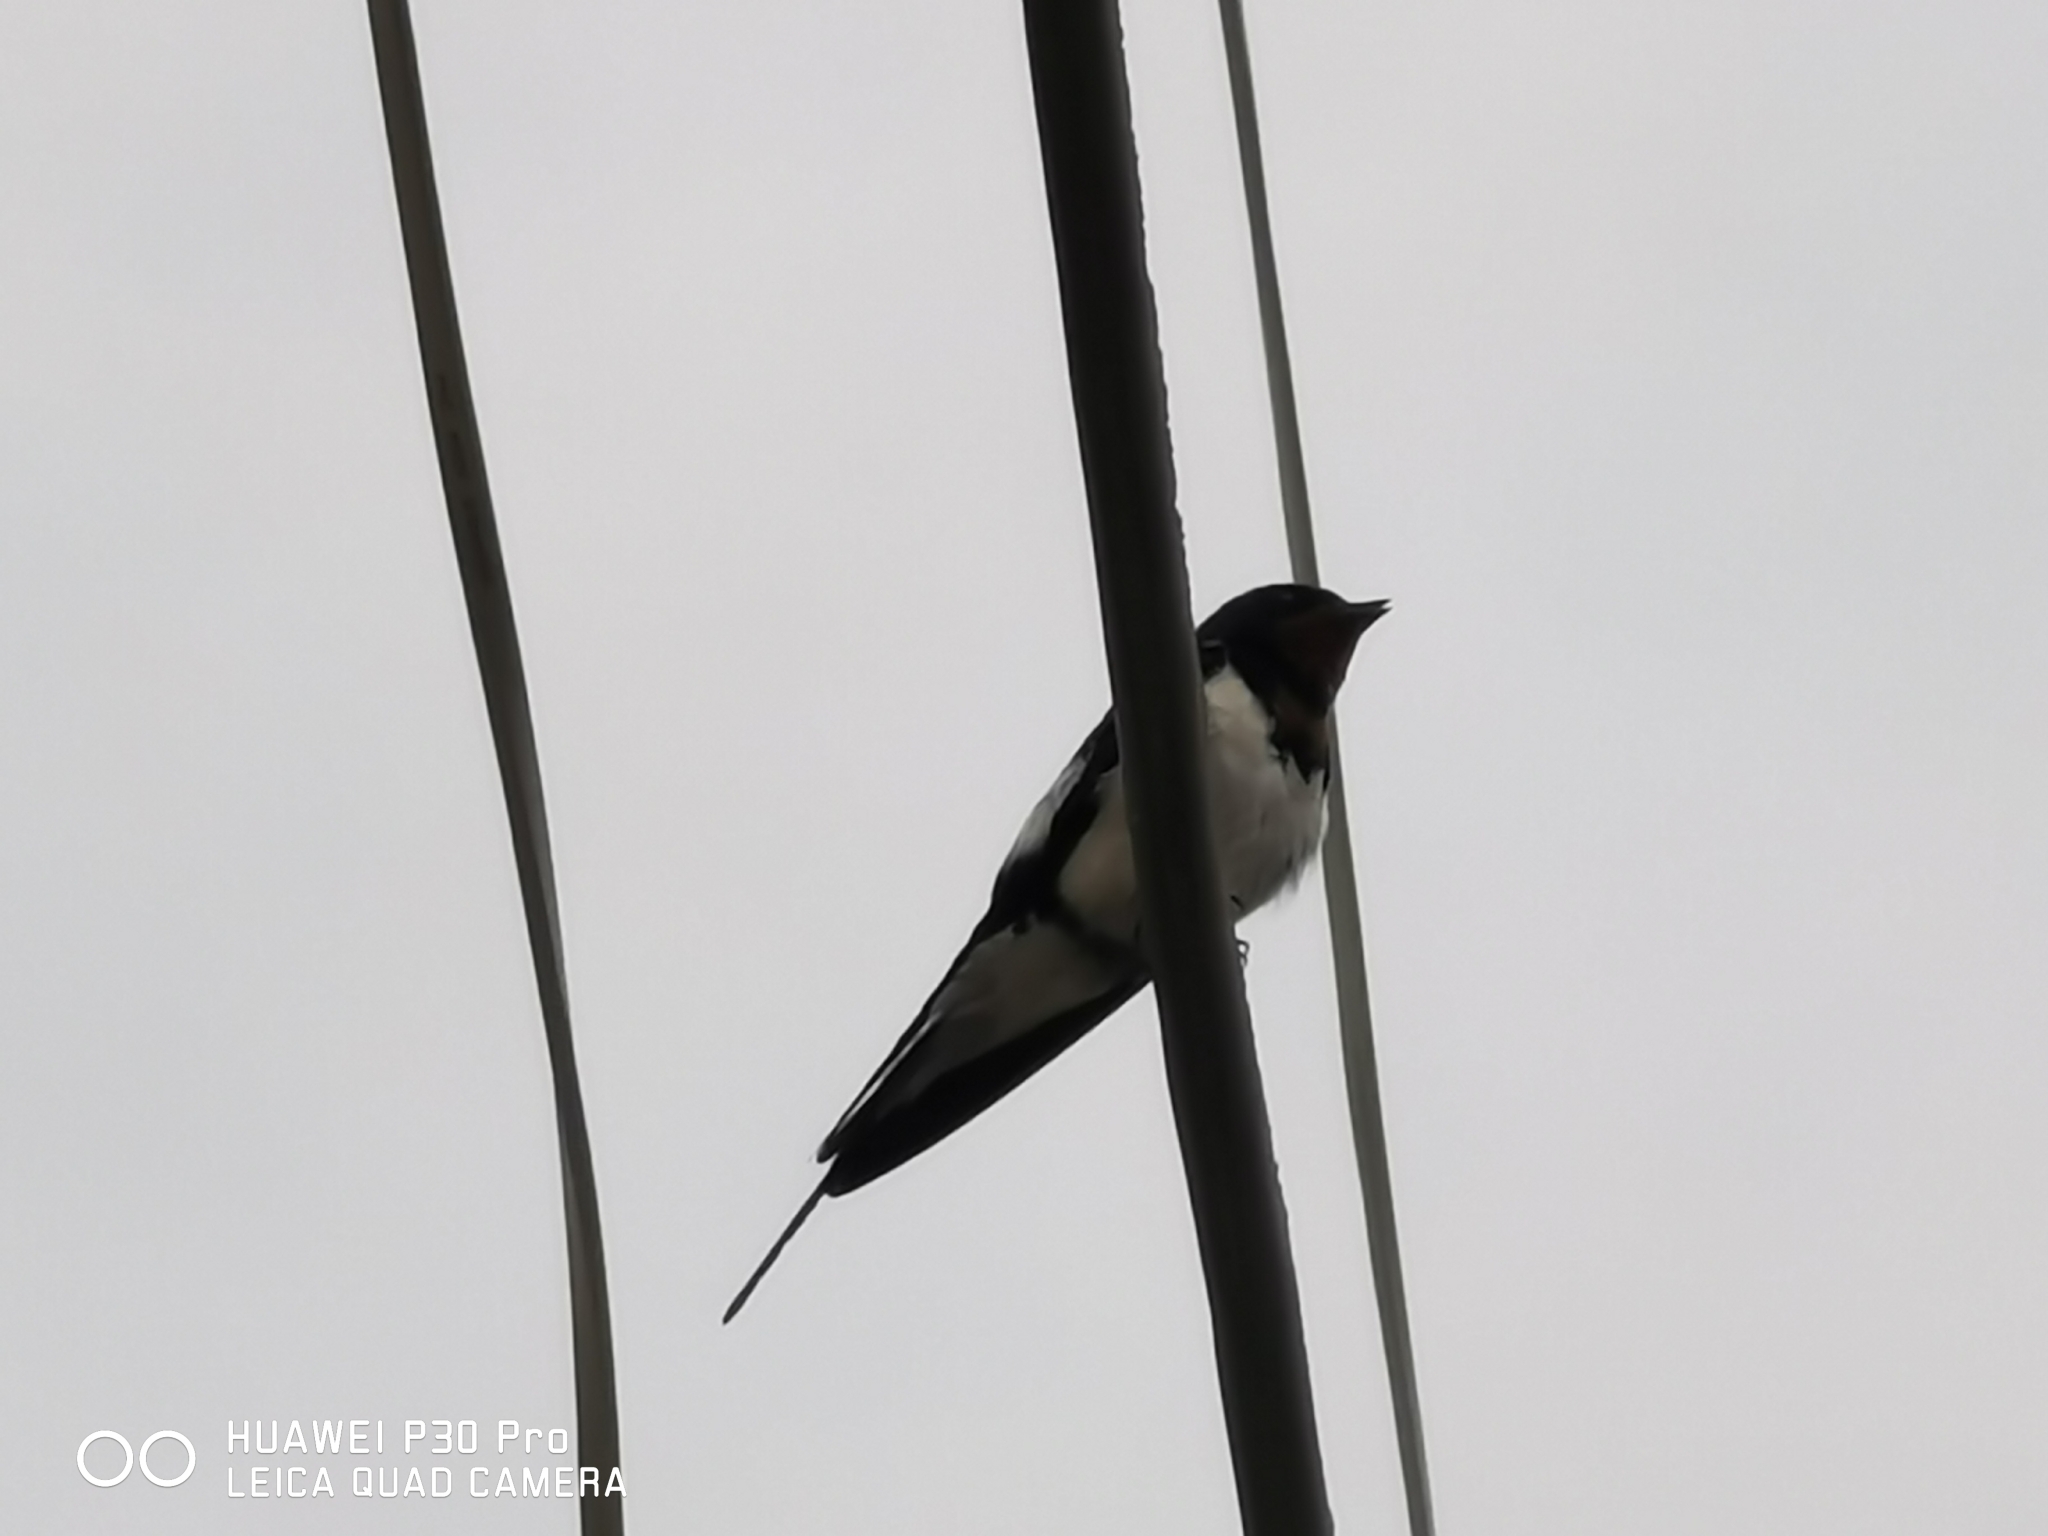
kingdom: Animalia
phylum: Chordata
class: Aves
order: Passeriformes
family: Hirundinidae
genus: Hirundo
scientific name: Hirundo rustica
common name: Barn swallow
